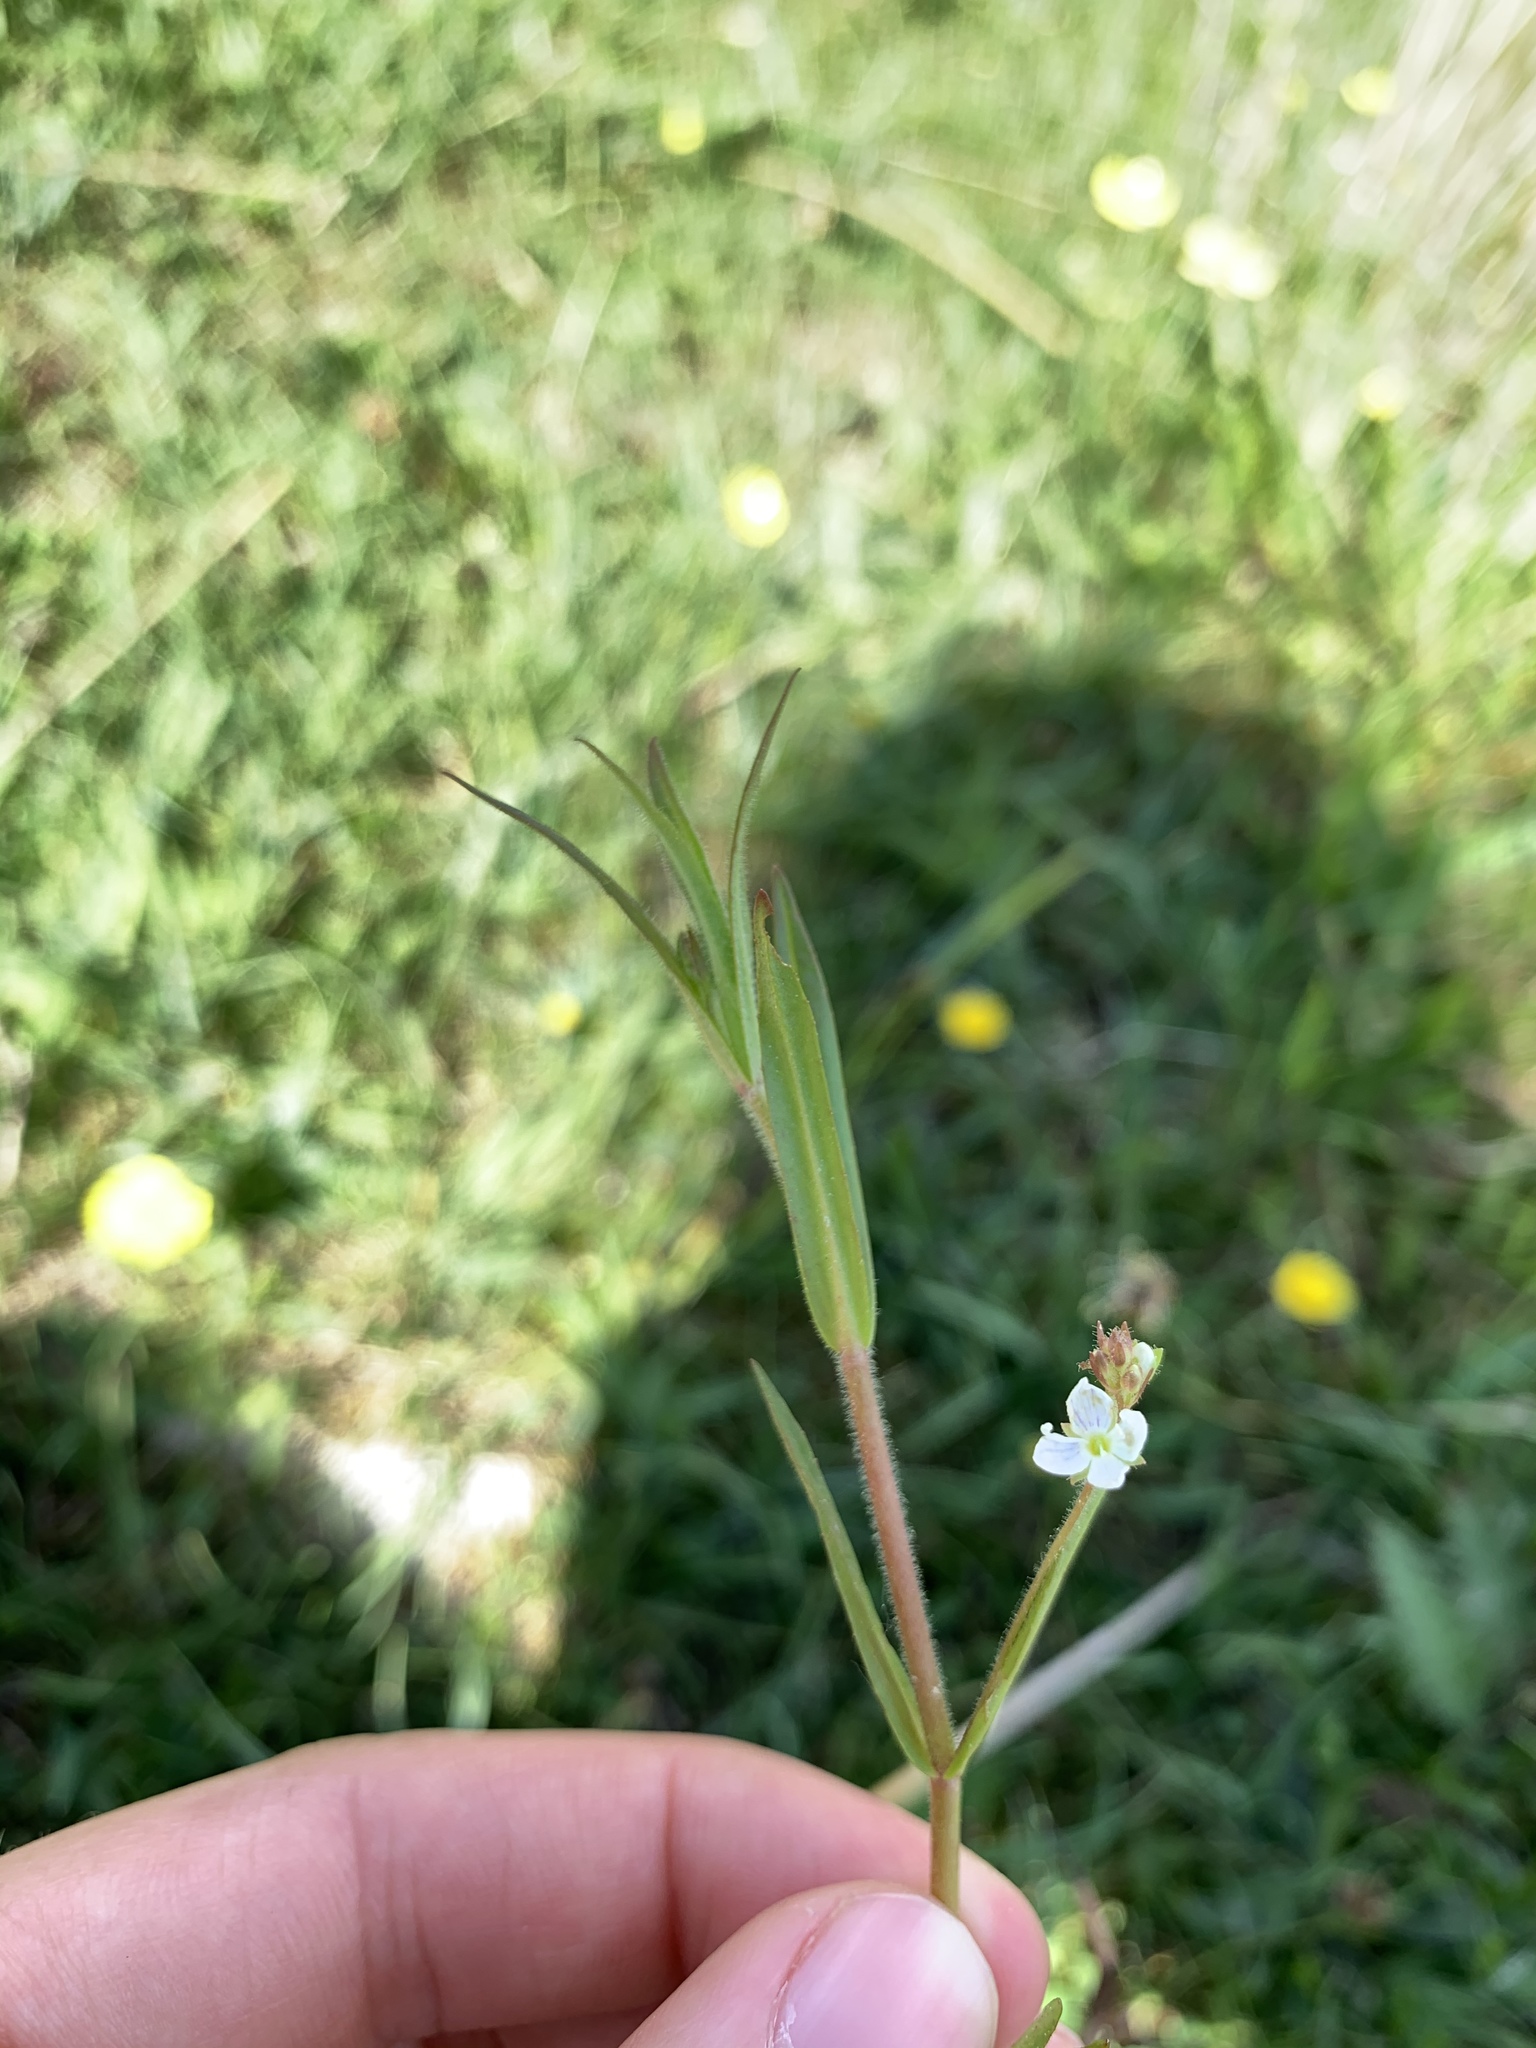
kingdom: Plantae
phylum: Tracheophyta
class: Magnoliopsida
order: Lamiales
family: Plantaginaceae
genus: Veronica
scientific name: Veronica scutellata
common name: Marsh speedwell
